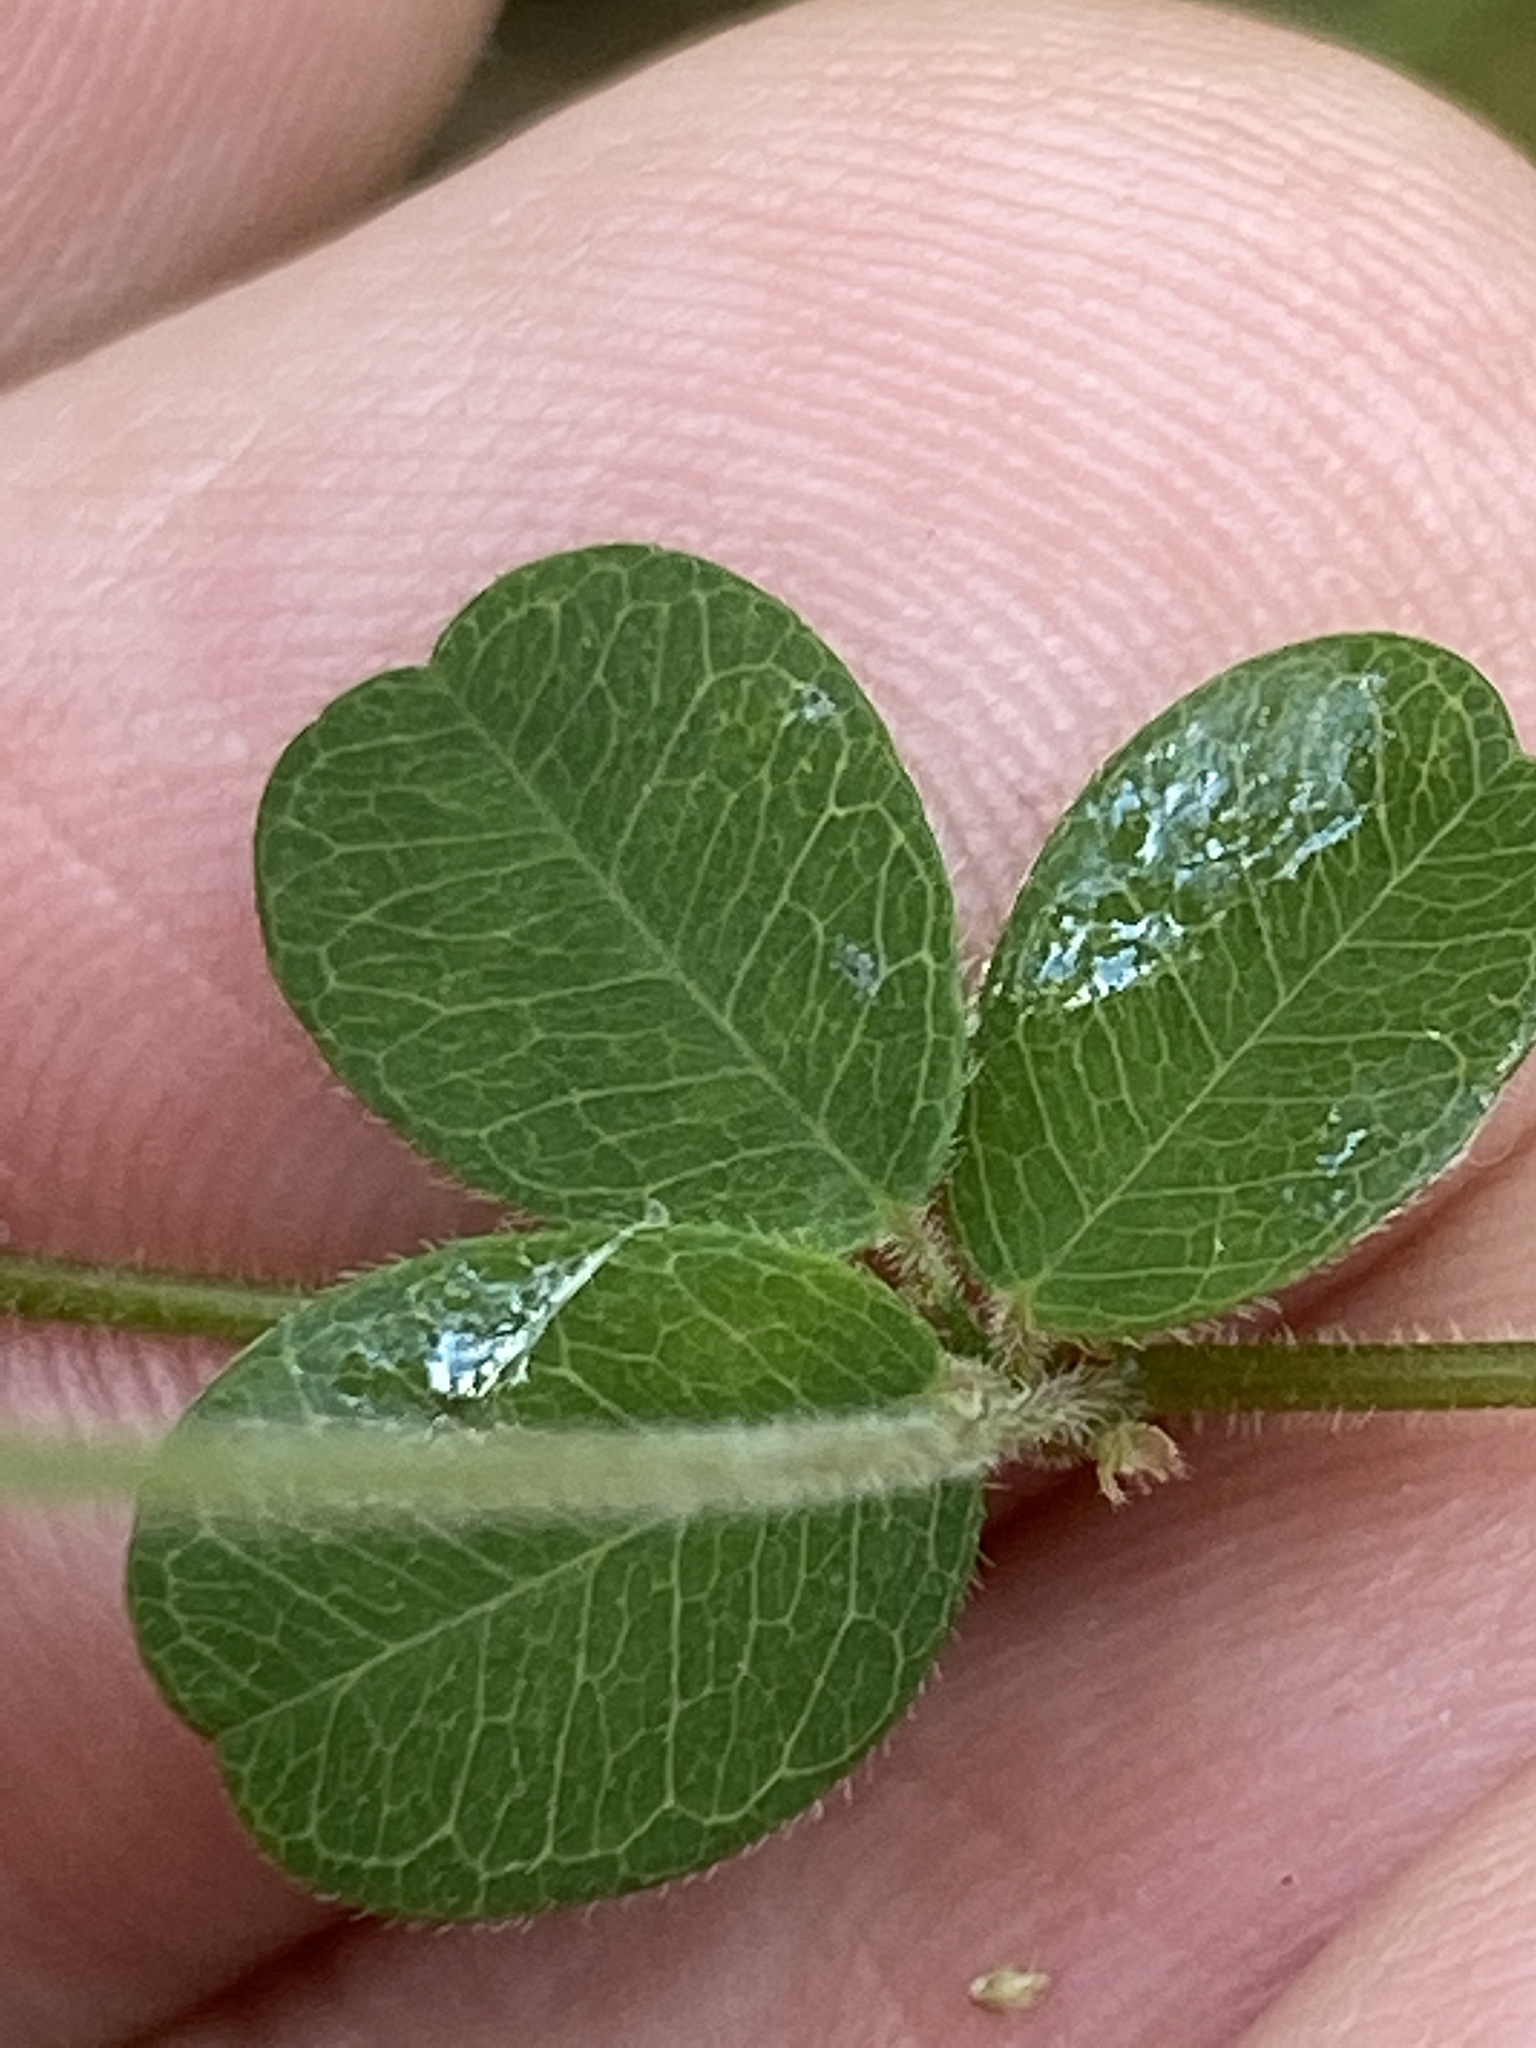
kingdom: Plantae
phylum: Tracheophyta
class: Magnoliopsida
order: Fabales
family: Fabaceae
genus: Lespedeza
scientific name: Lespedeza procumbens
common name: Downy trailing bush-clover
